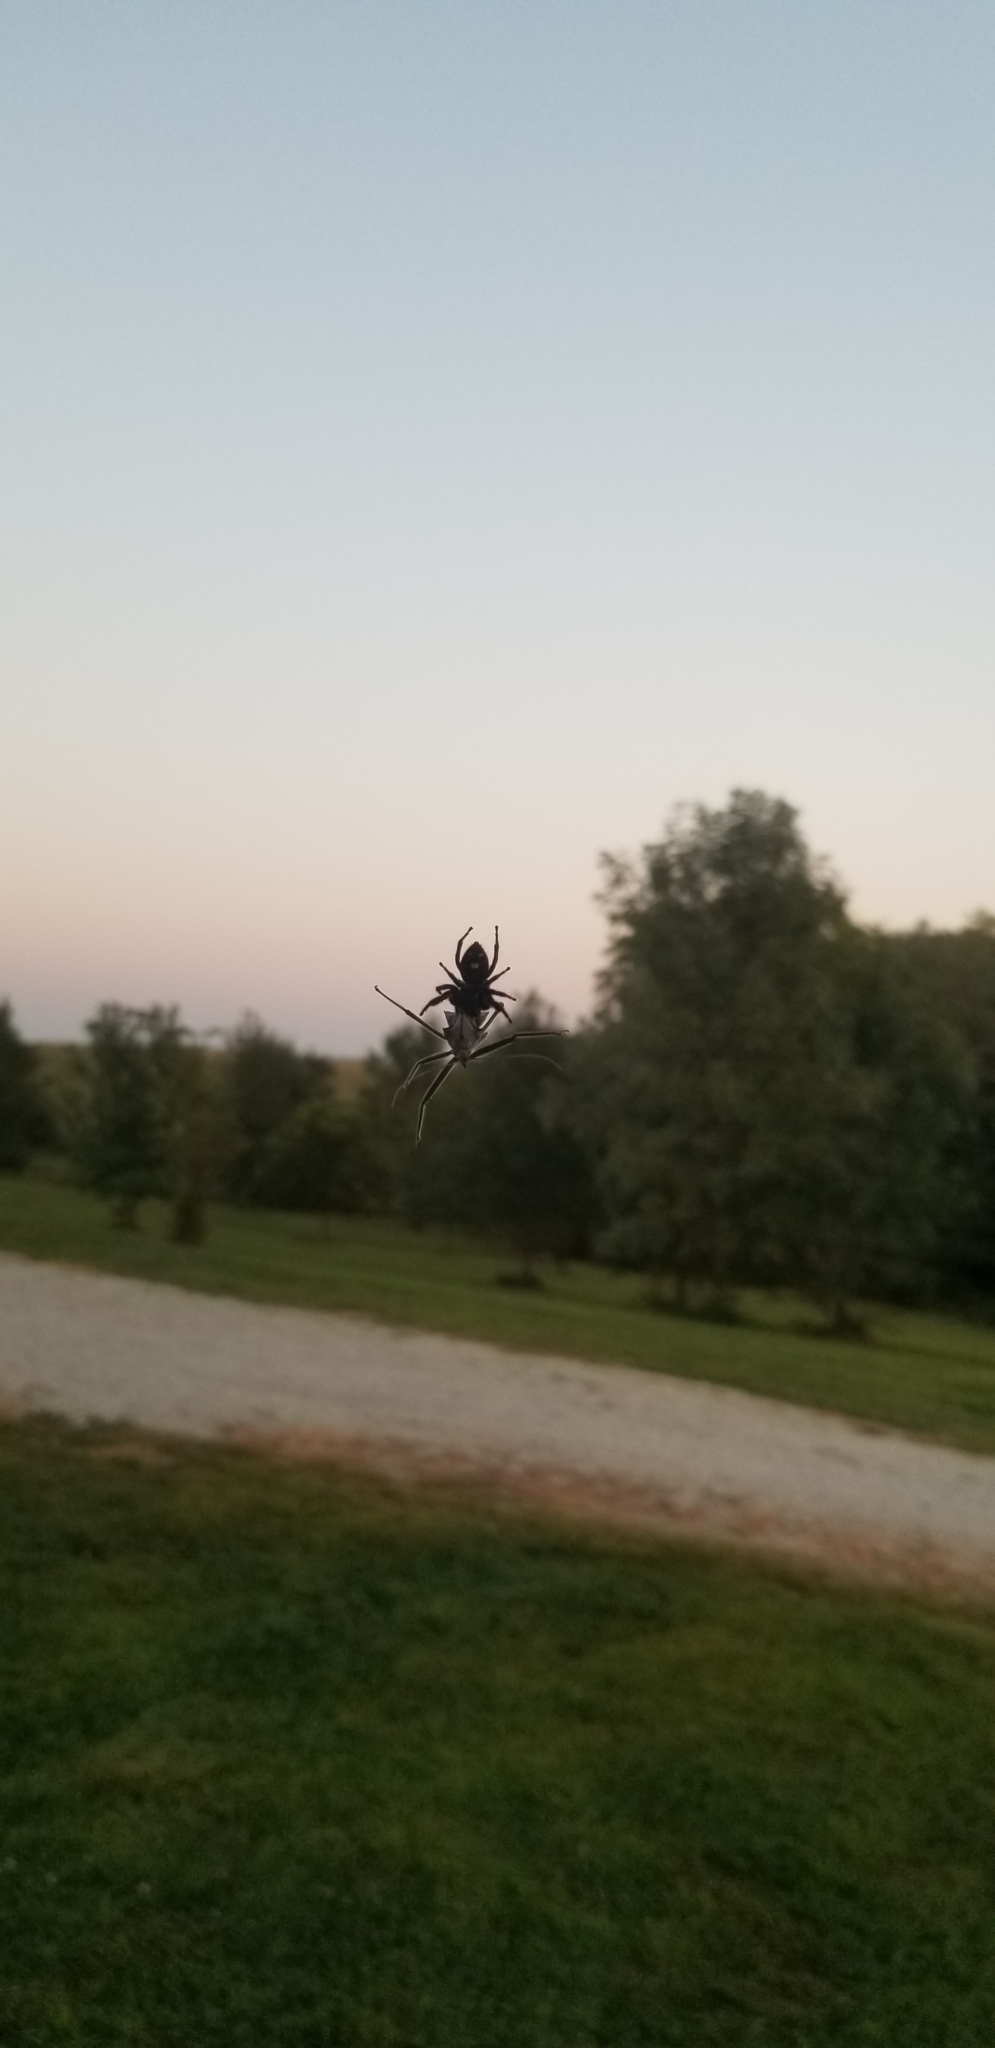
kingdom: Animalia
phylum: Arthropoda
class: Arachnida
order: Araneae
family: Salticidae
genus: Phidippus
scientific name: Phidippus audax
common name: Bold jumper
